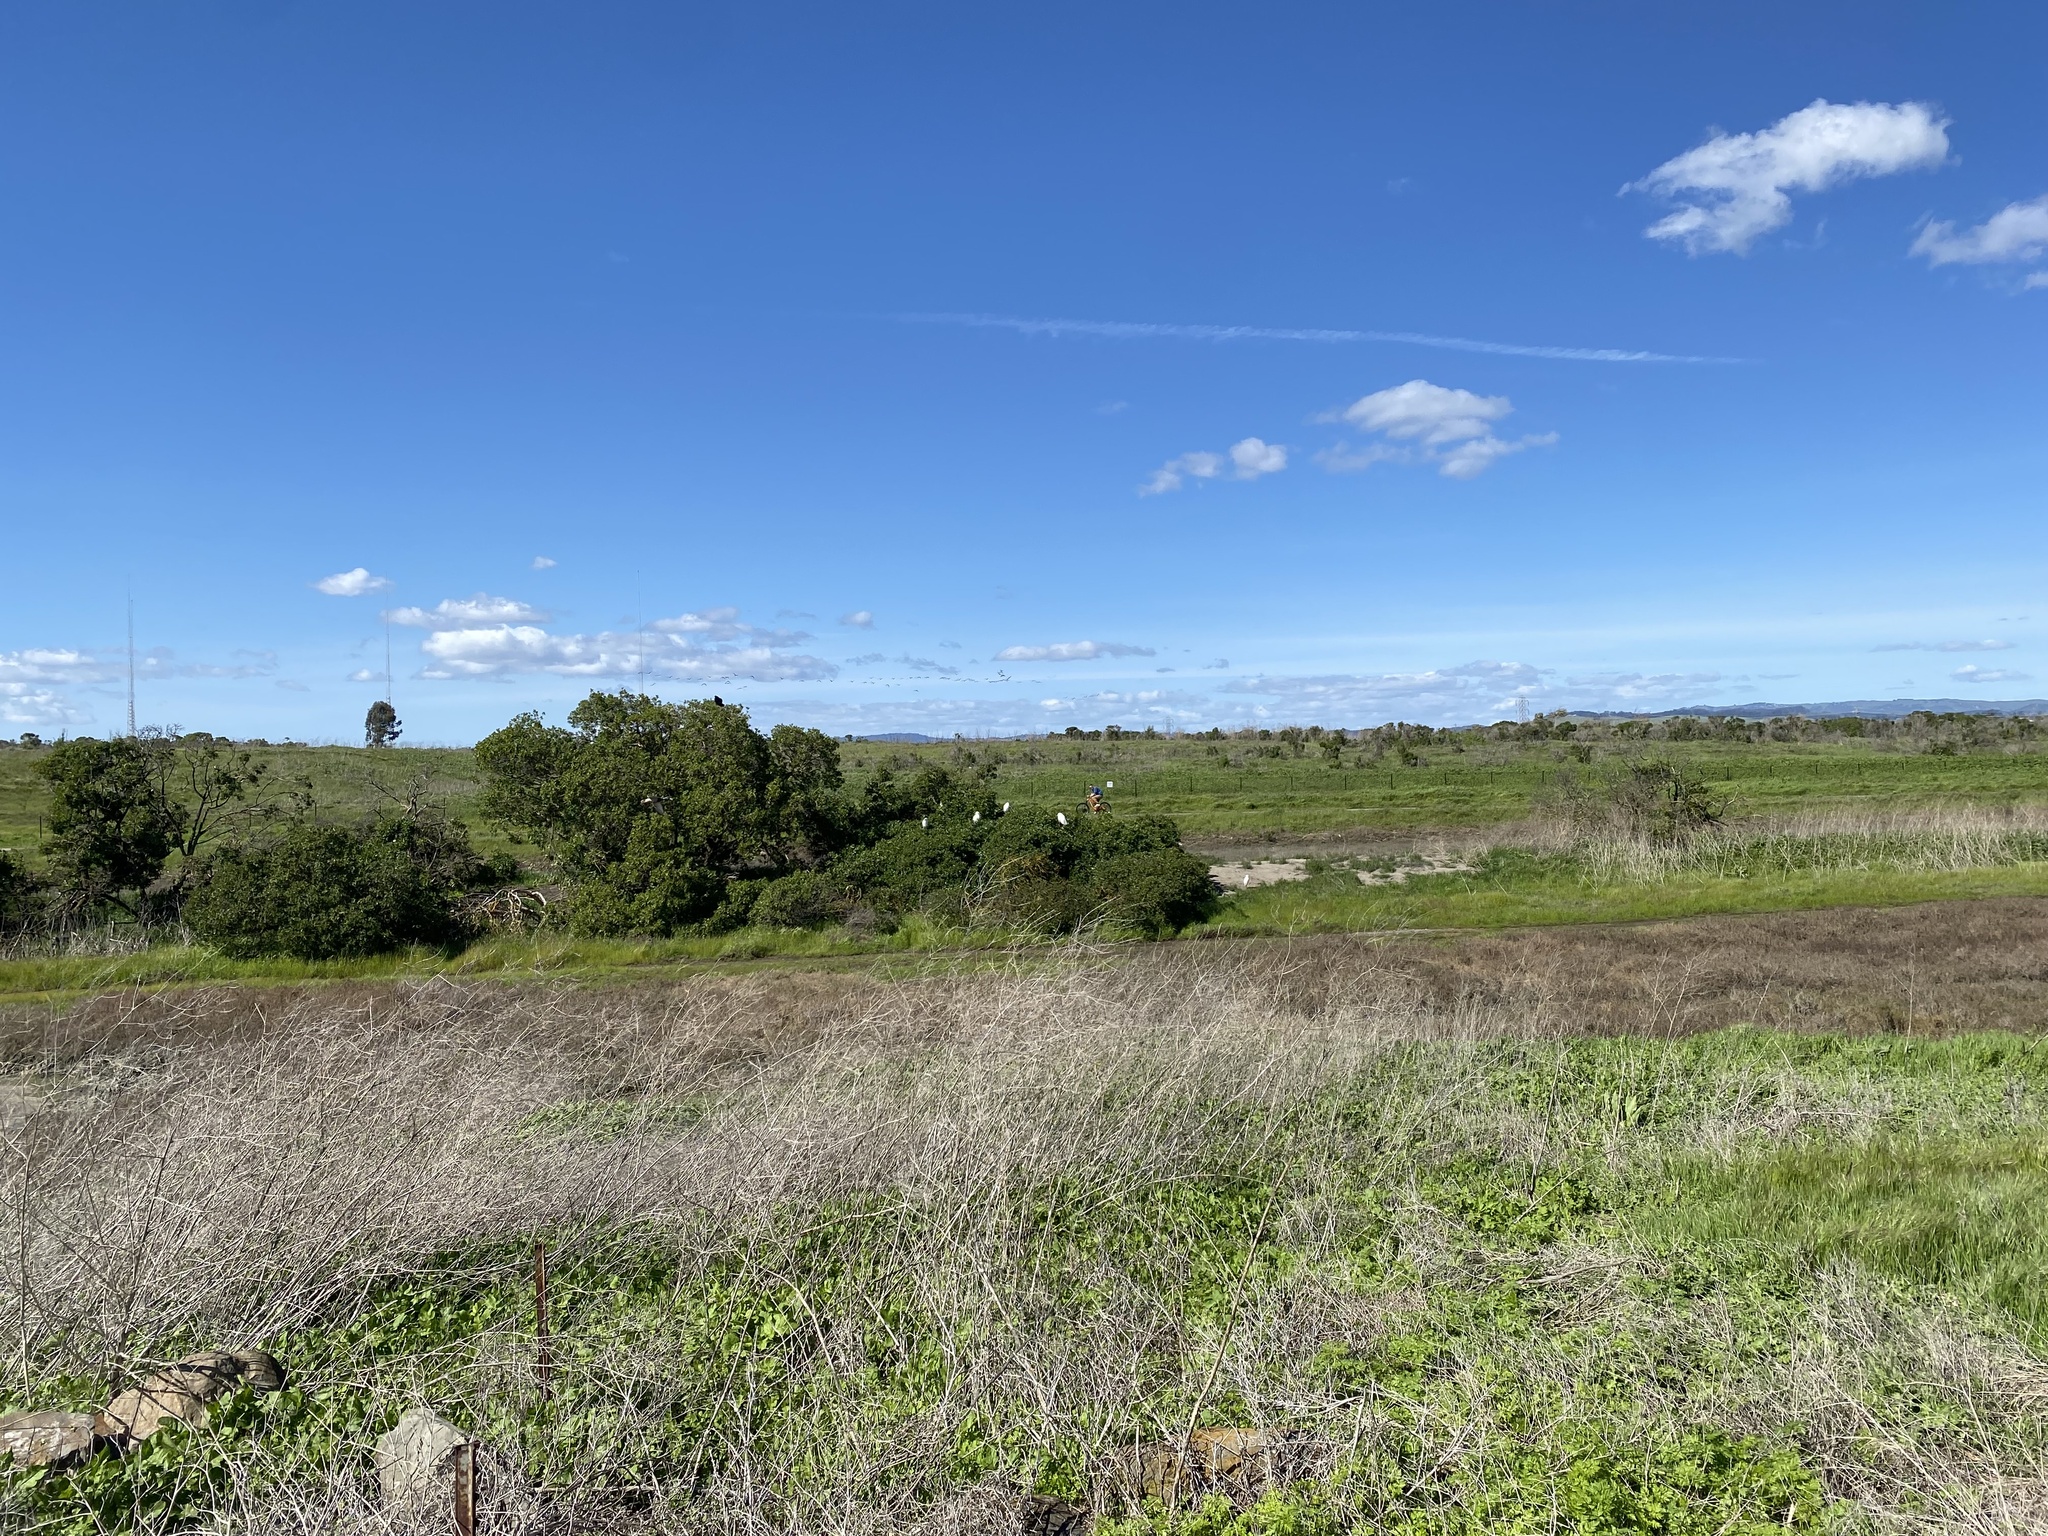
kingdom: Animalia
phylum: Chordata
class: Aves
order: Pelecaniformes
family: Ardeidae
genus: Ardea
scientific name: Ardea alba
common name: Great egret
